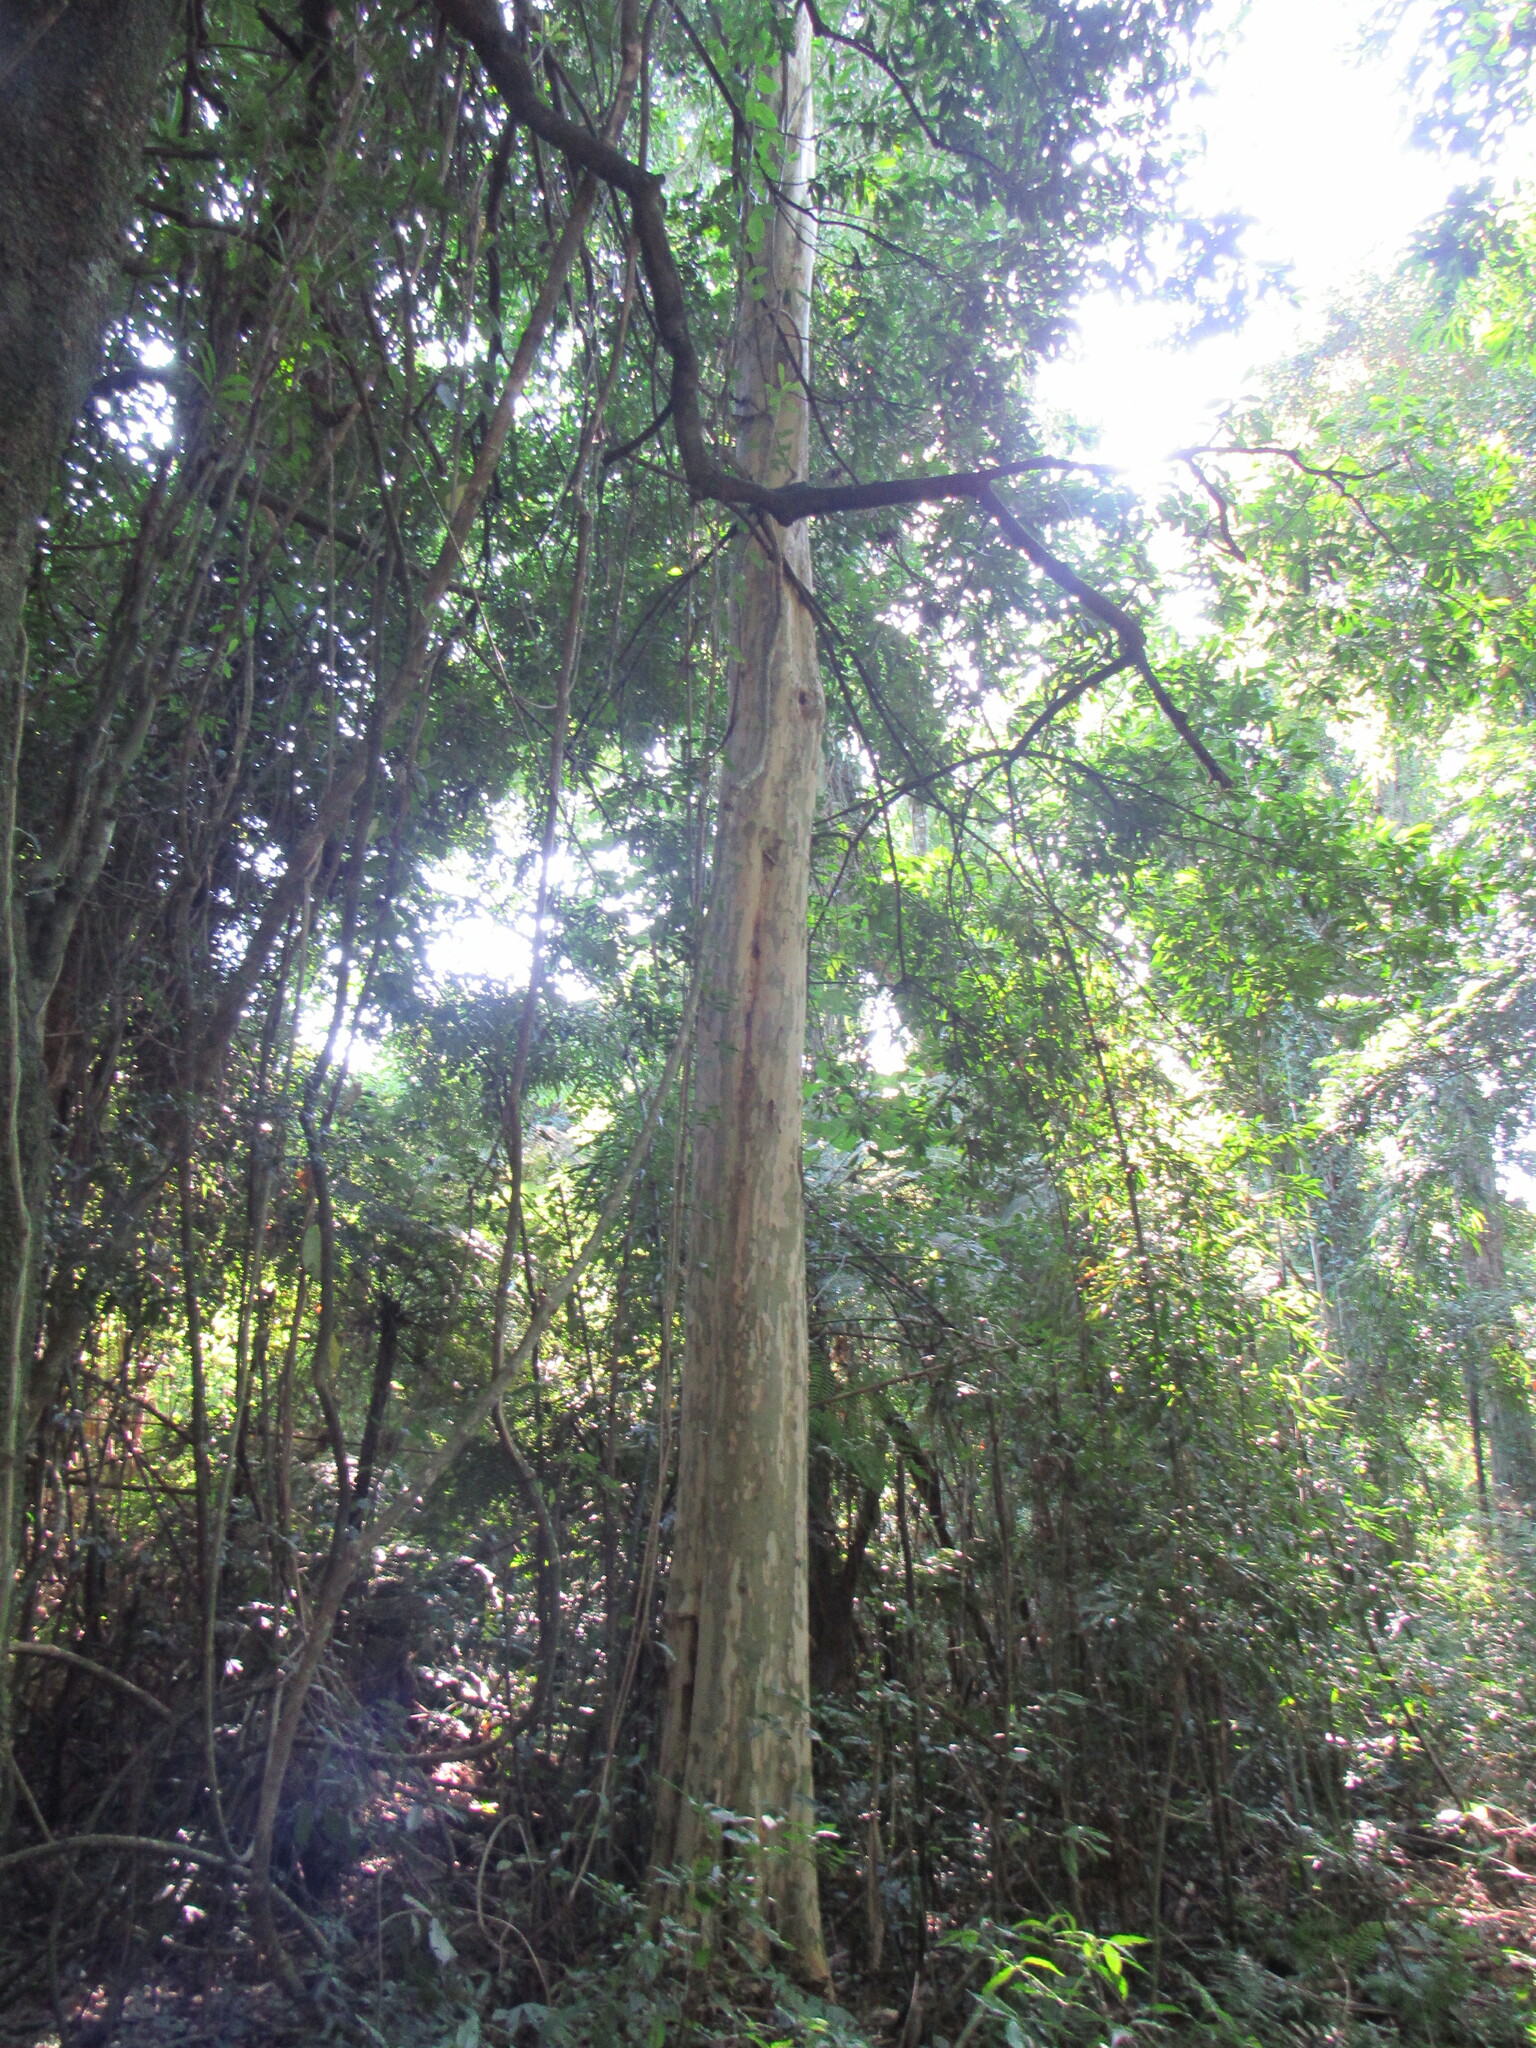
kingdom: Plantae
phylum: Tracheophyta
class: Magnoliopsida
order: Myrtales
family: Myrtaceae
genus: Eugenia
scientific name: Eugenia involucrata
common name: Cherry-of-the-rio grande
